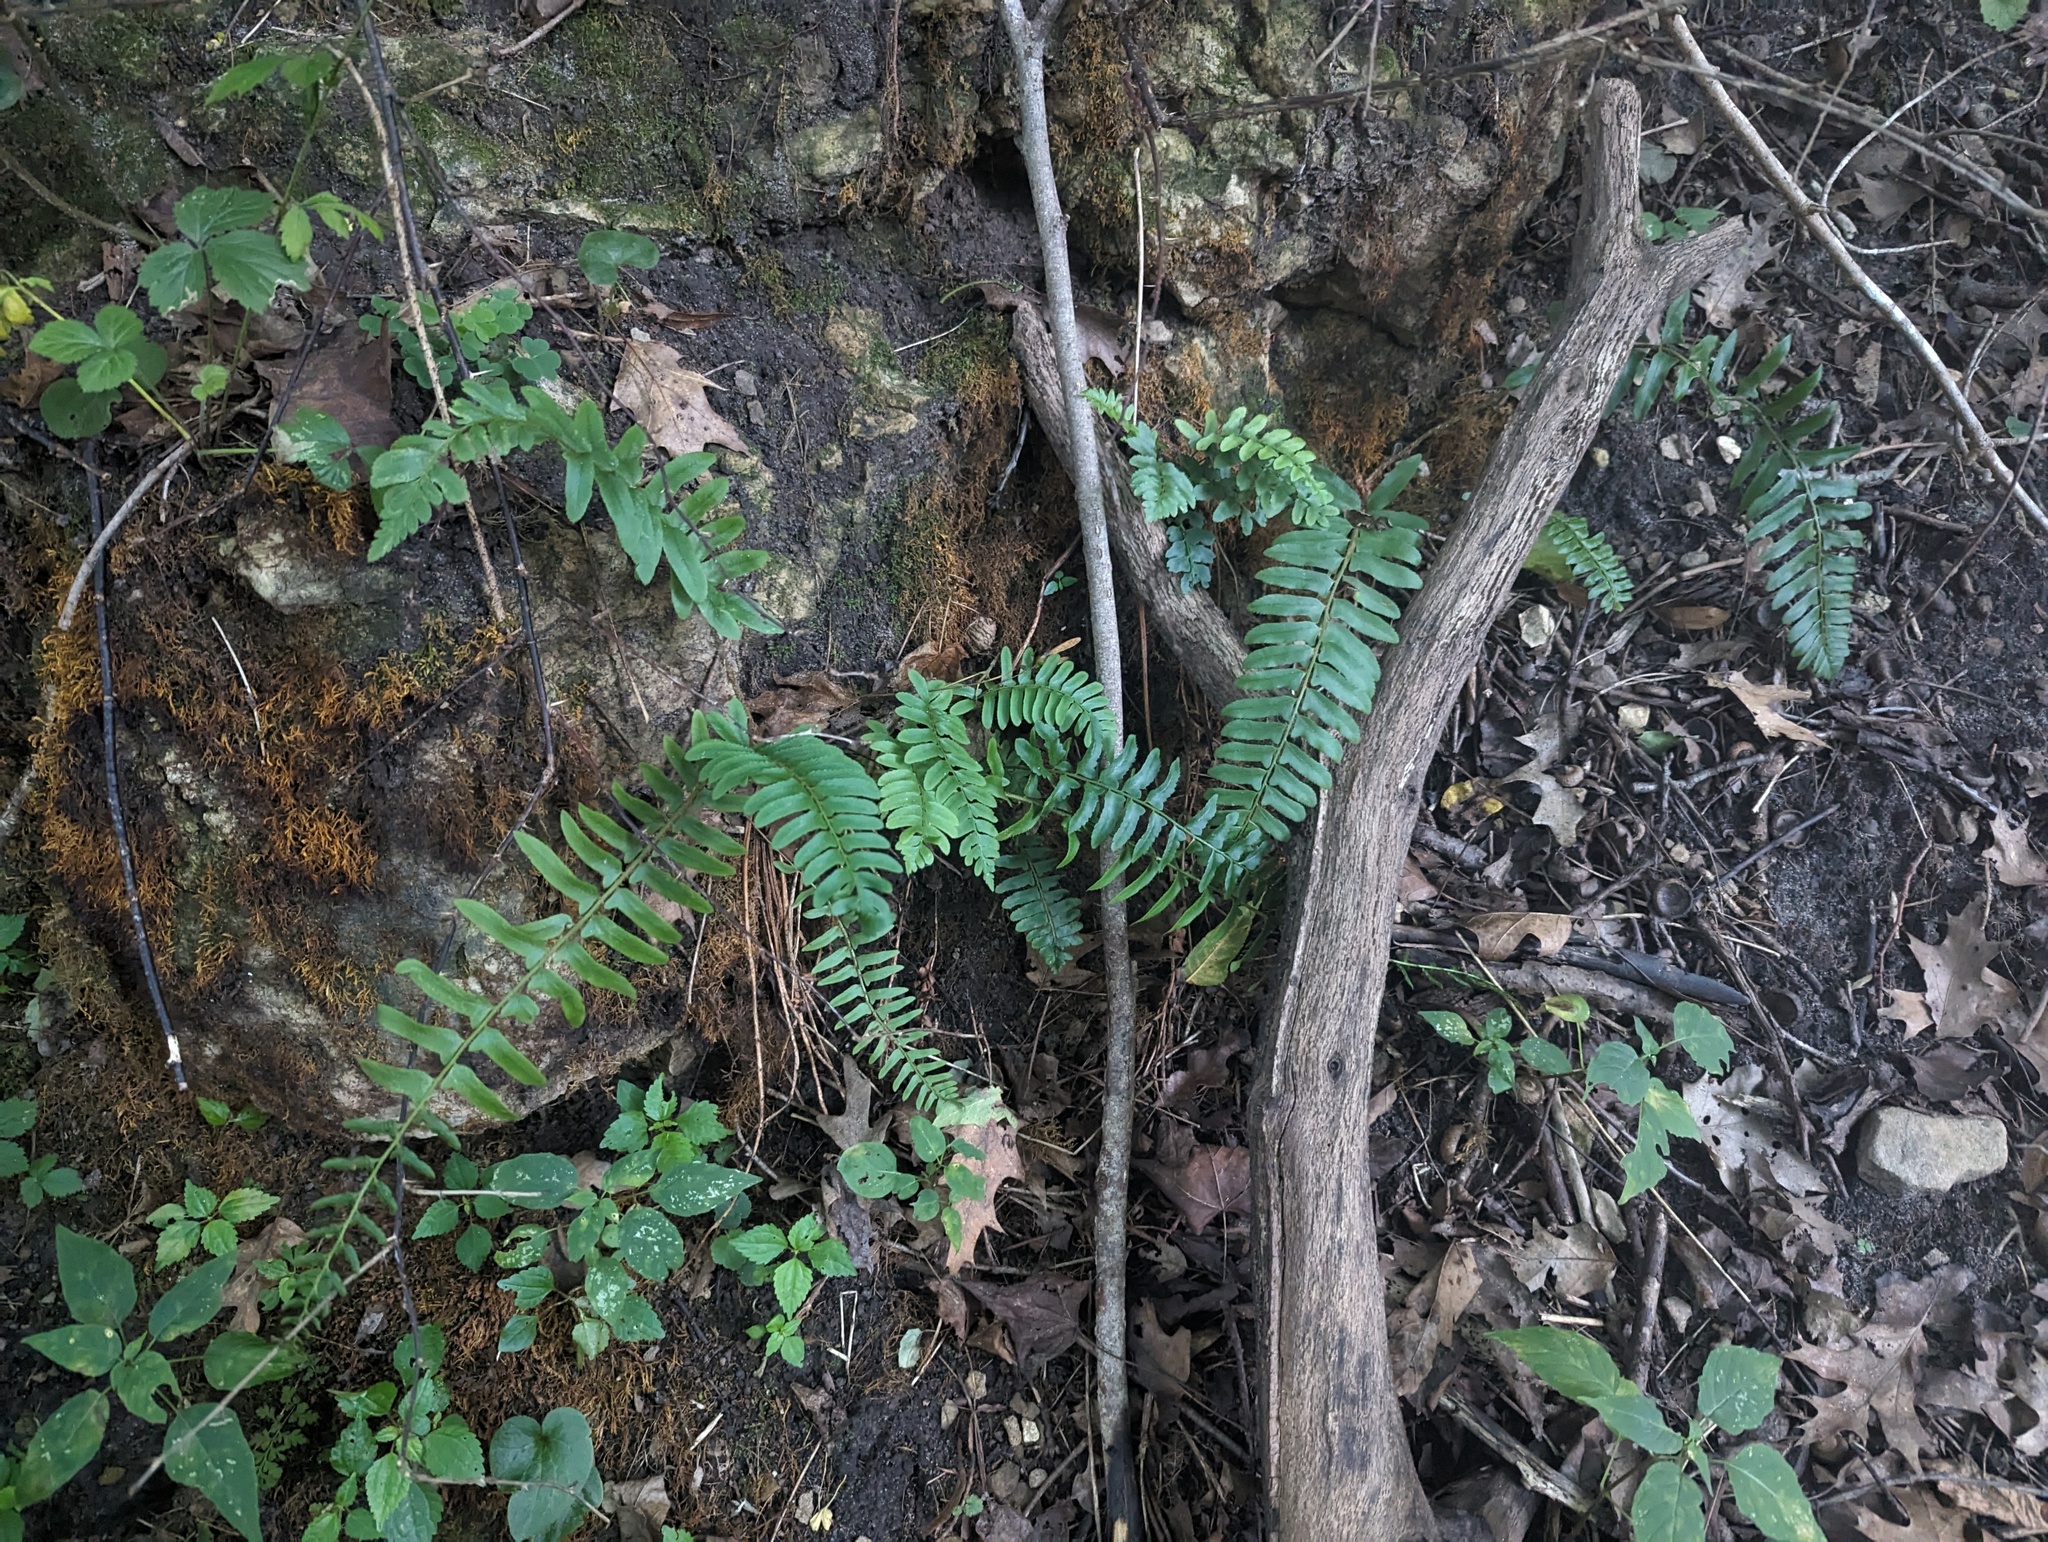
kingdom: Plantae
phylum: Tracheophyta
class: Polypodiopsida
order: Polypodiales
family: Dryopteridaceae
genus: Polystichum
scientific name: Polystichum acrostichoides
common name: Christmas fern
